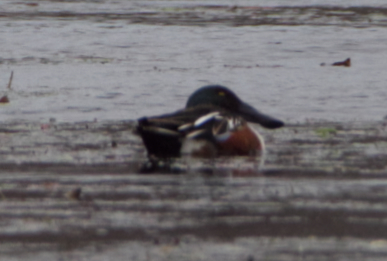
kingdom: Animalia
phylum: Chordata
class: Aves
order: Anseriformes
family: Anatidae
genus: Spatula
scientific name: Spatula clypeata
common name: Northern shoveler
